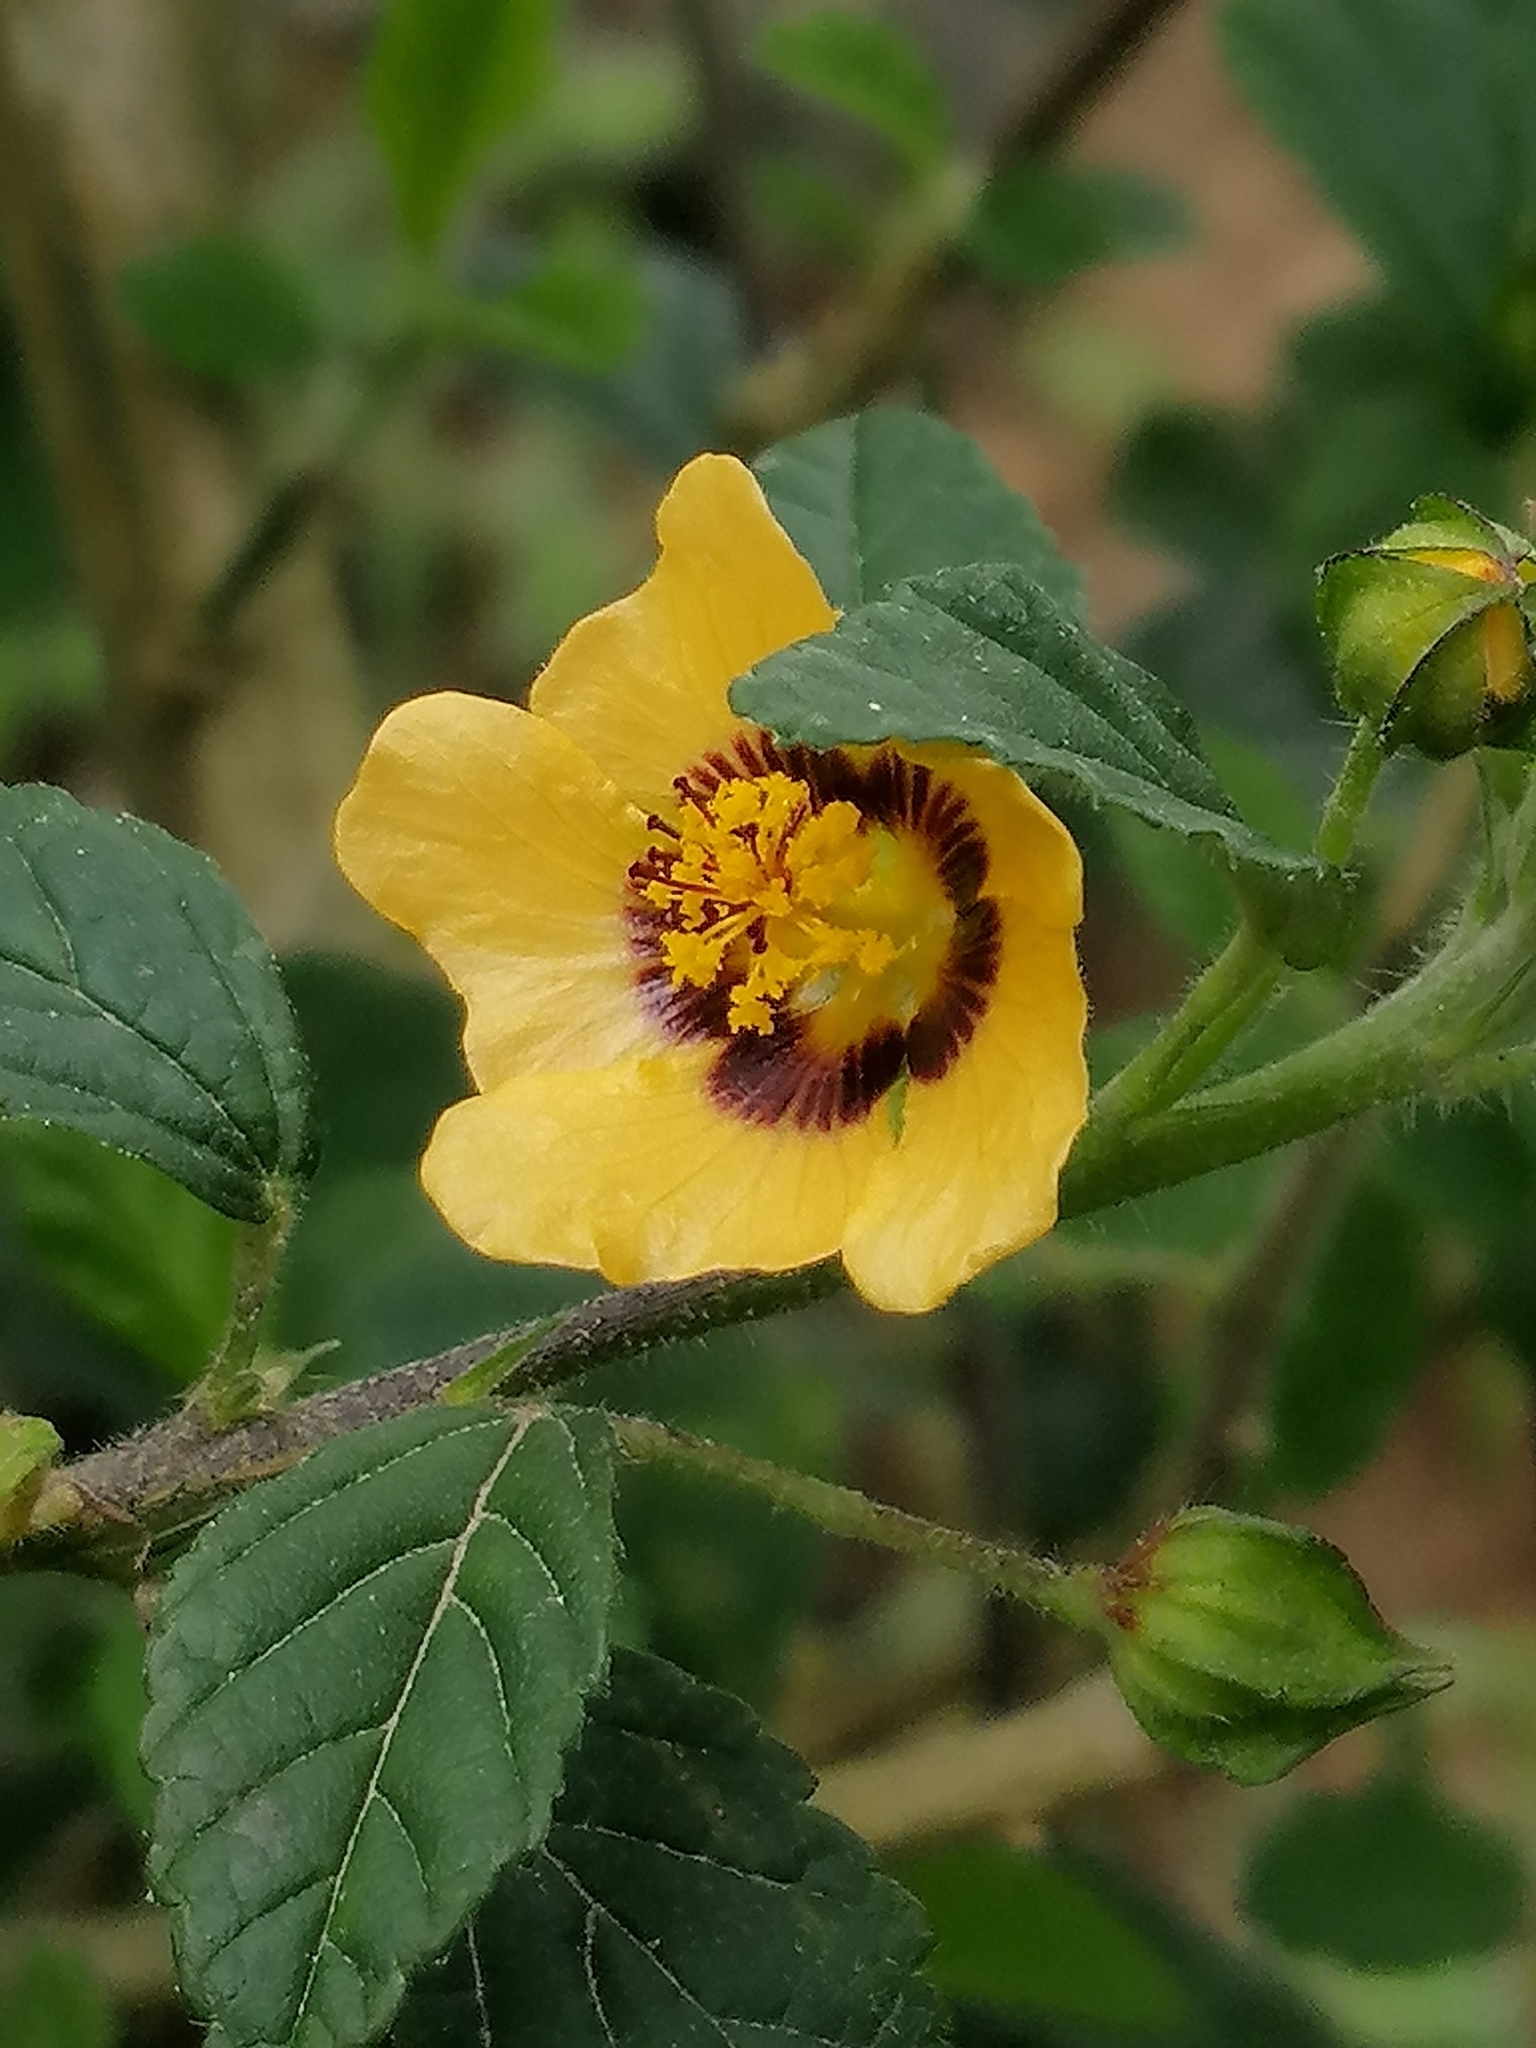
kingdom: Plantae
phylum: Tracheophyta
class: Magnoliopsida
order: Malvales
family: Malvaceae
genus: Sida
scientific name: Sida poeppigiana
